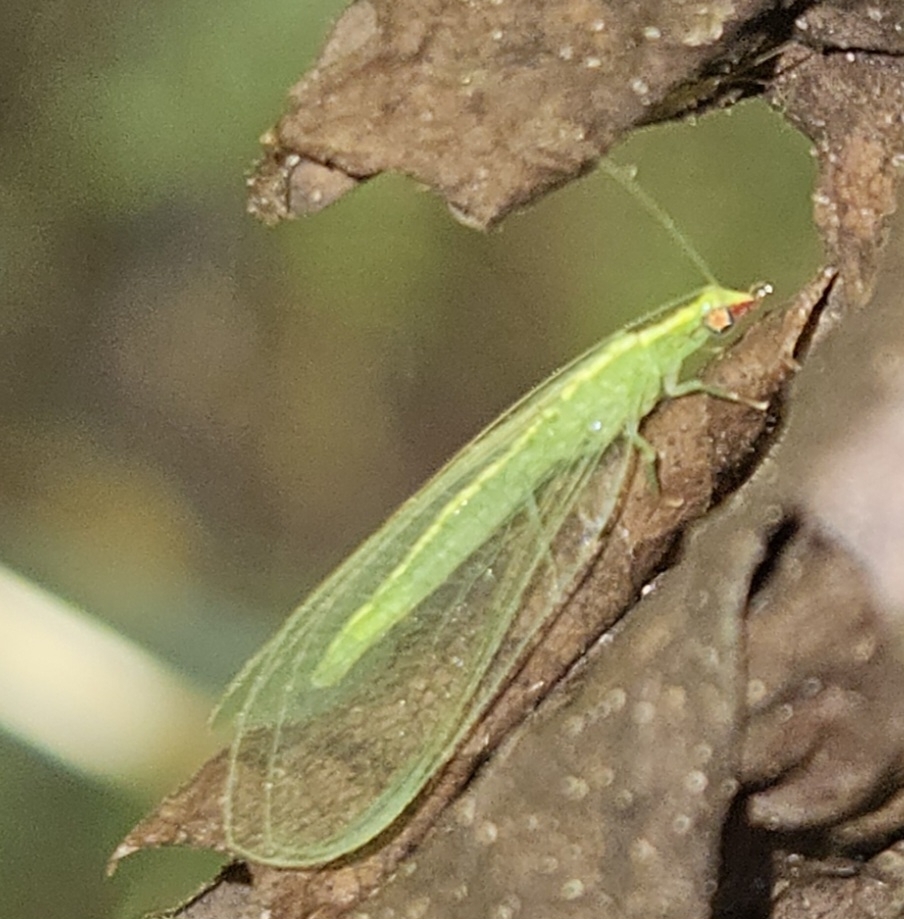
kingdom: Animalia
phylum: Arthropoda
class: Insecta
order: Neuroptera
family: Chrysopidae
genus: Chrysoperla
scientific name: Chrysoperla rufilabris
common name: Red-lipped green lacewing
